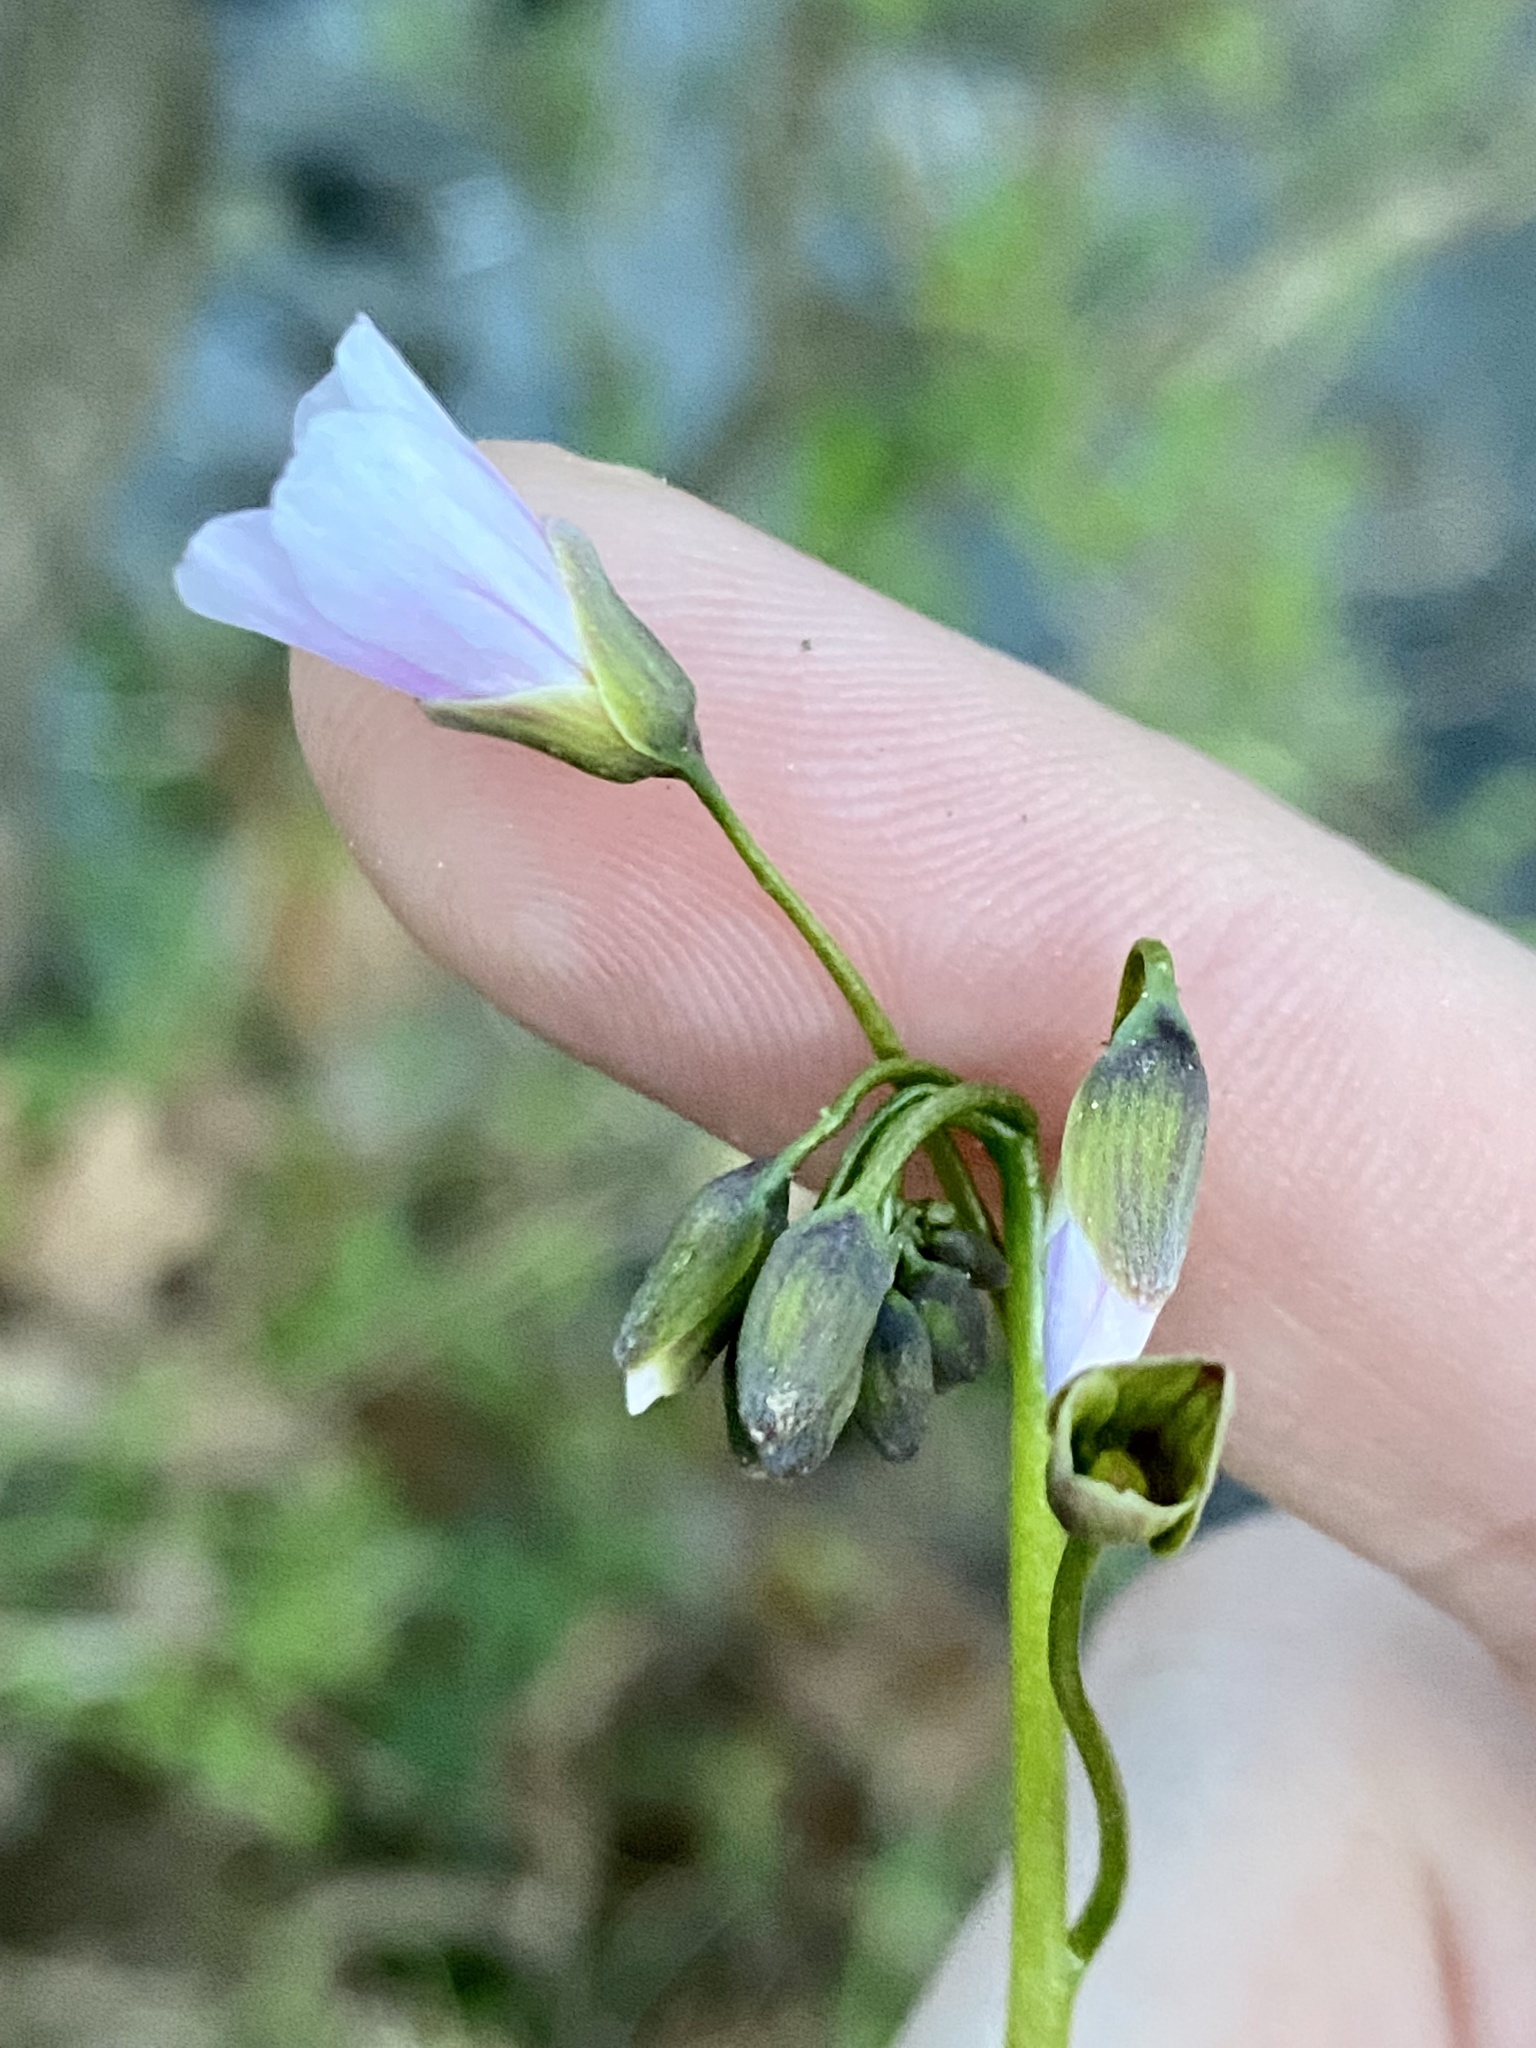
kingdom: Plantae
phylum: Tracheophyta
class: Magnoliopsida
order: Caryophyllales
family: Montiaceae
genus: Claytonia
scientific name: Claytonia virginica
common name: Virginia springbeauty
